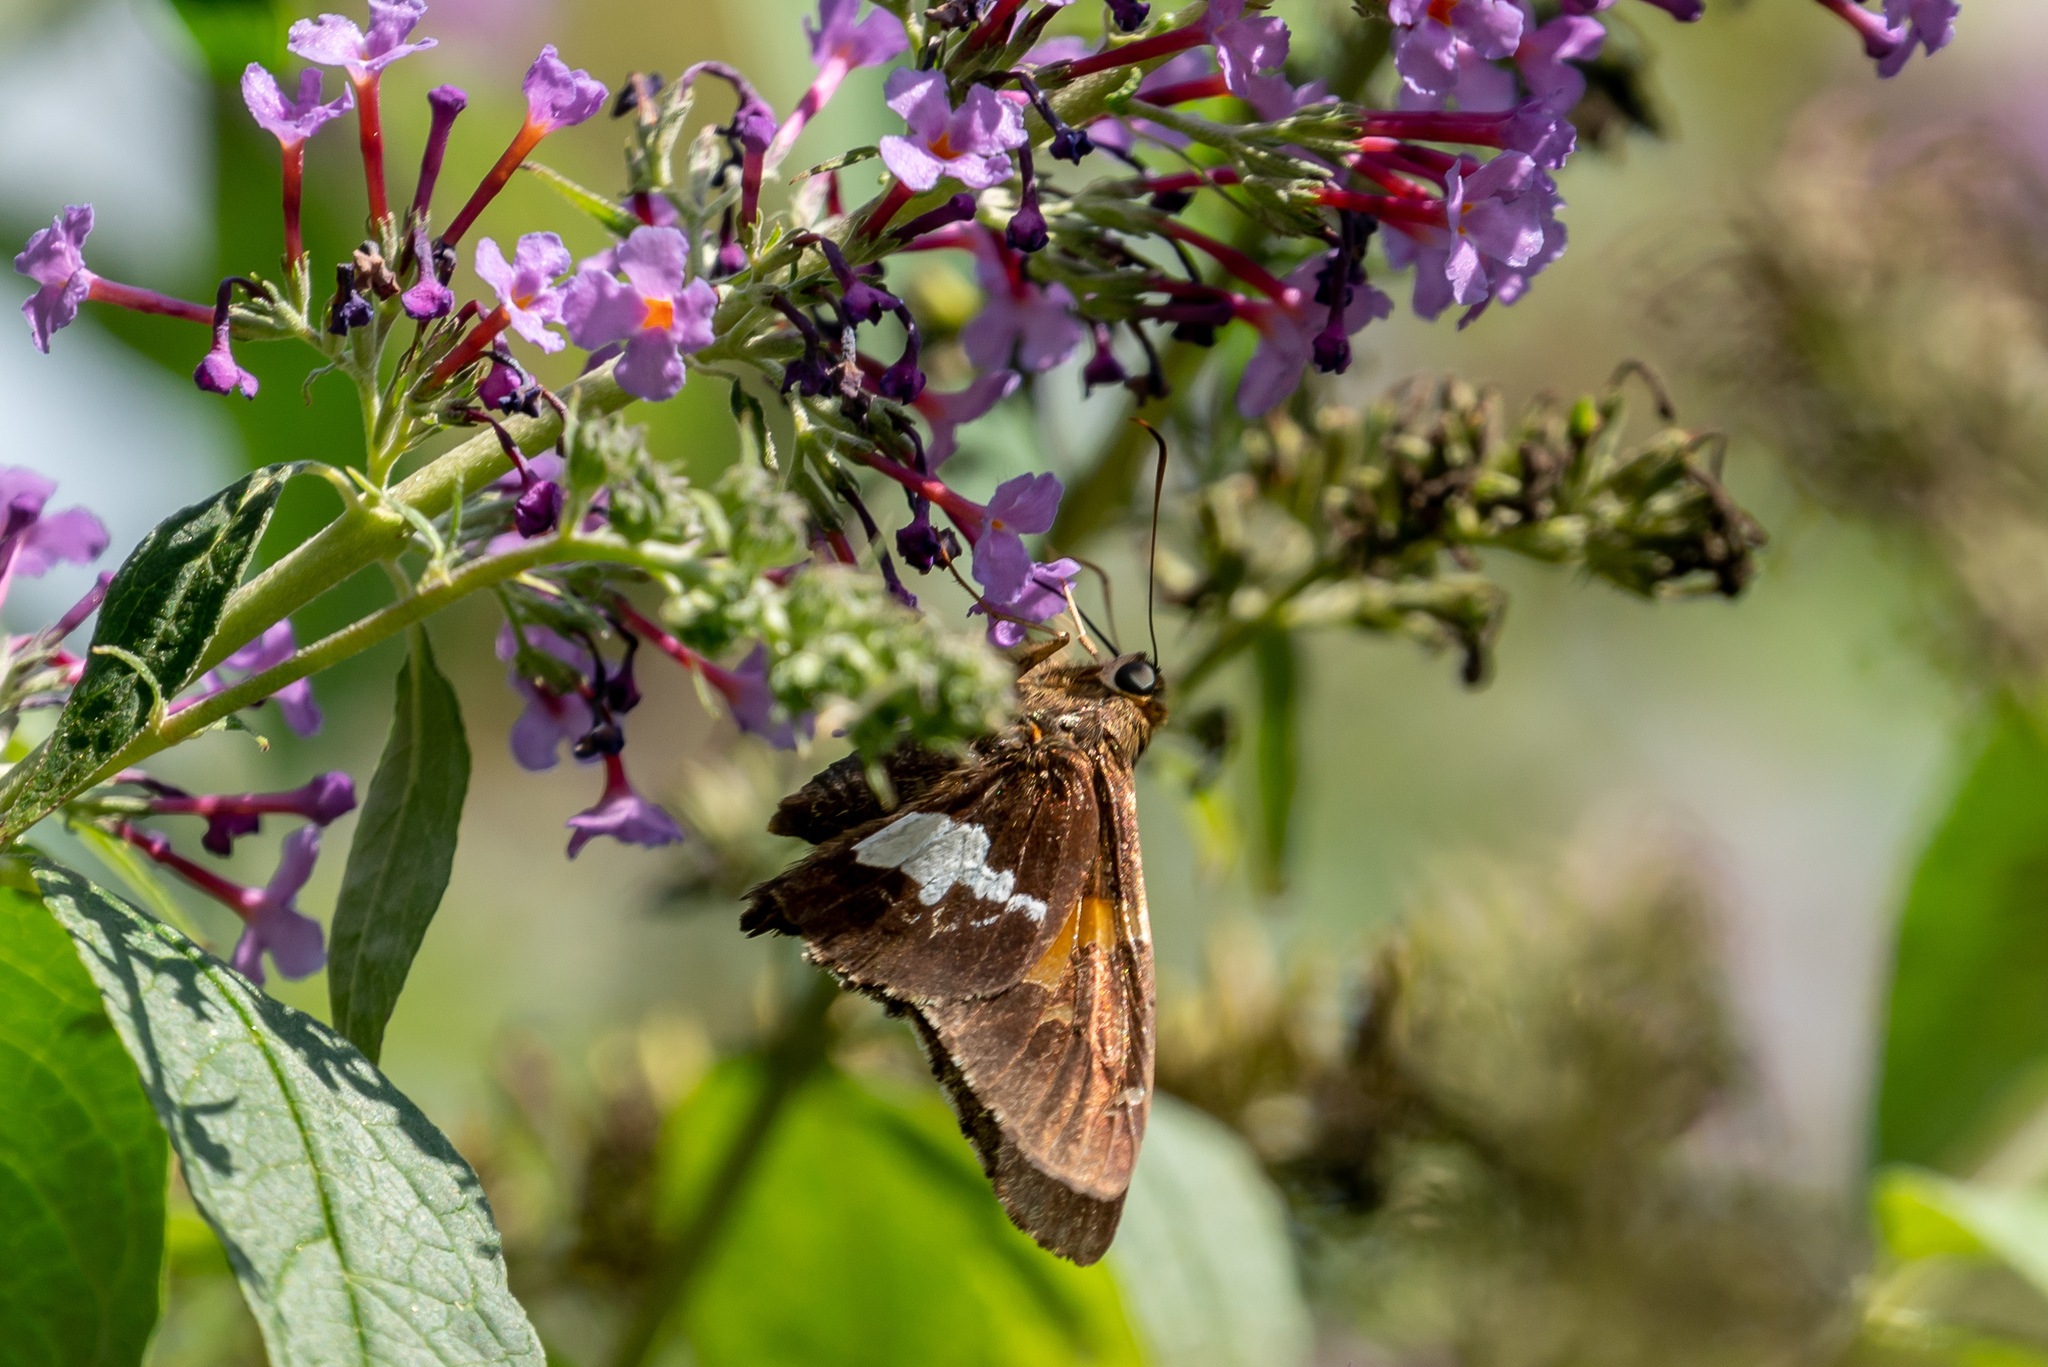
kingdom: Animalia
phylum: Arthropoda
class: Insecta
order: Lepidoptera
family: Hesperiidae
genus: Epargyreus
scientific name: Epargyreus clarus
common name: Silver-spotted skipper
